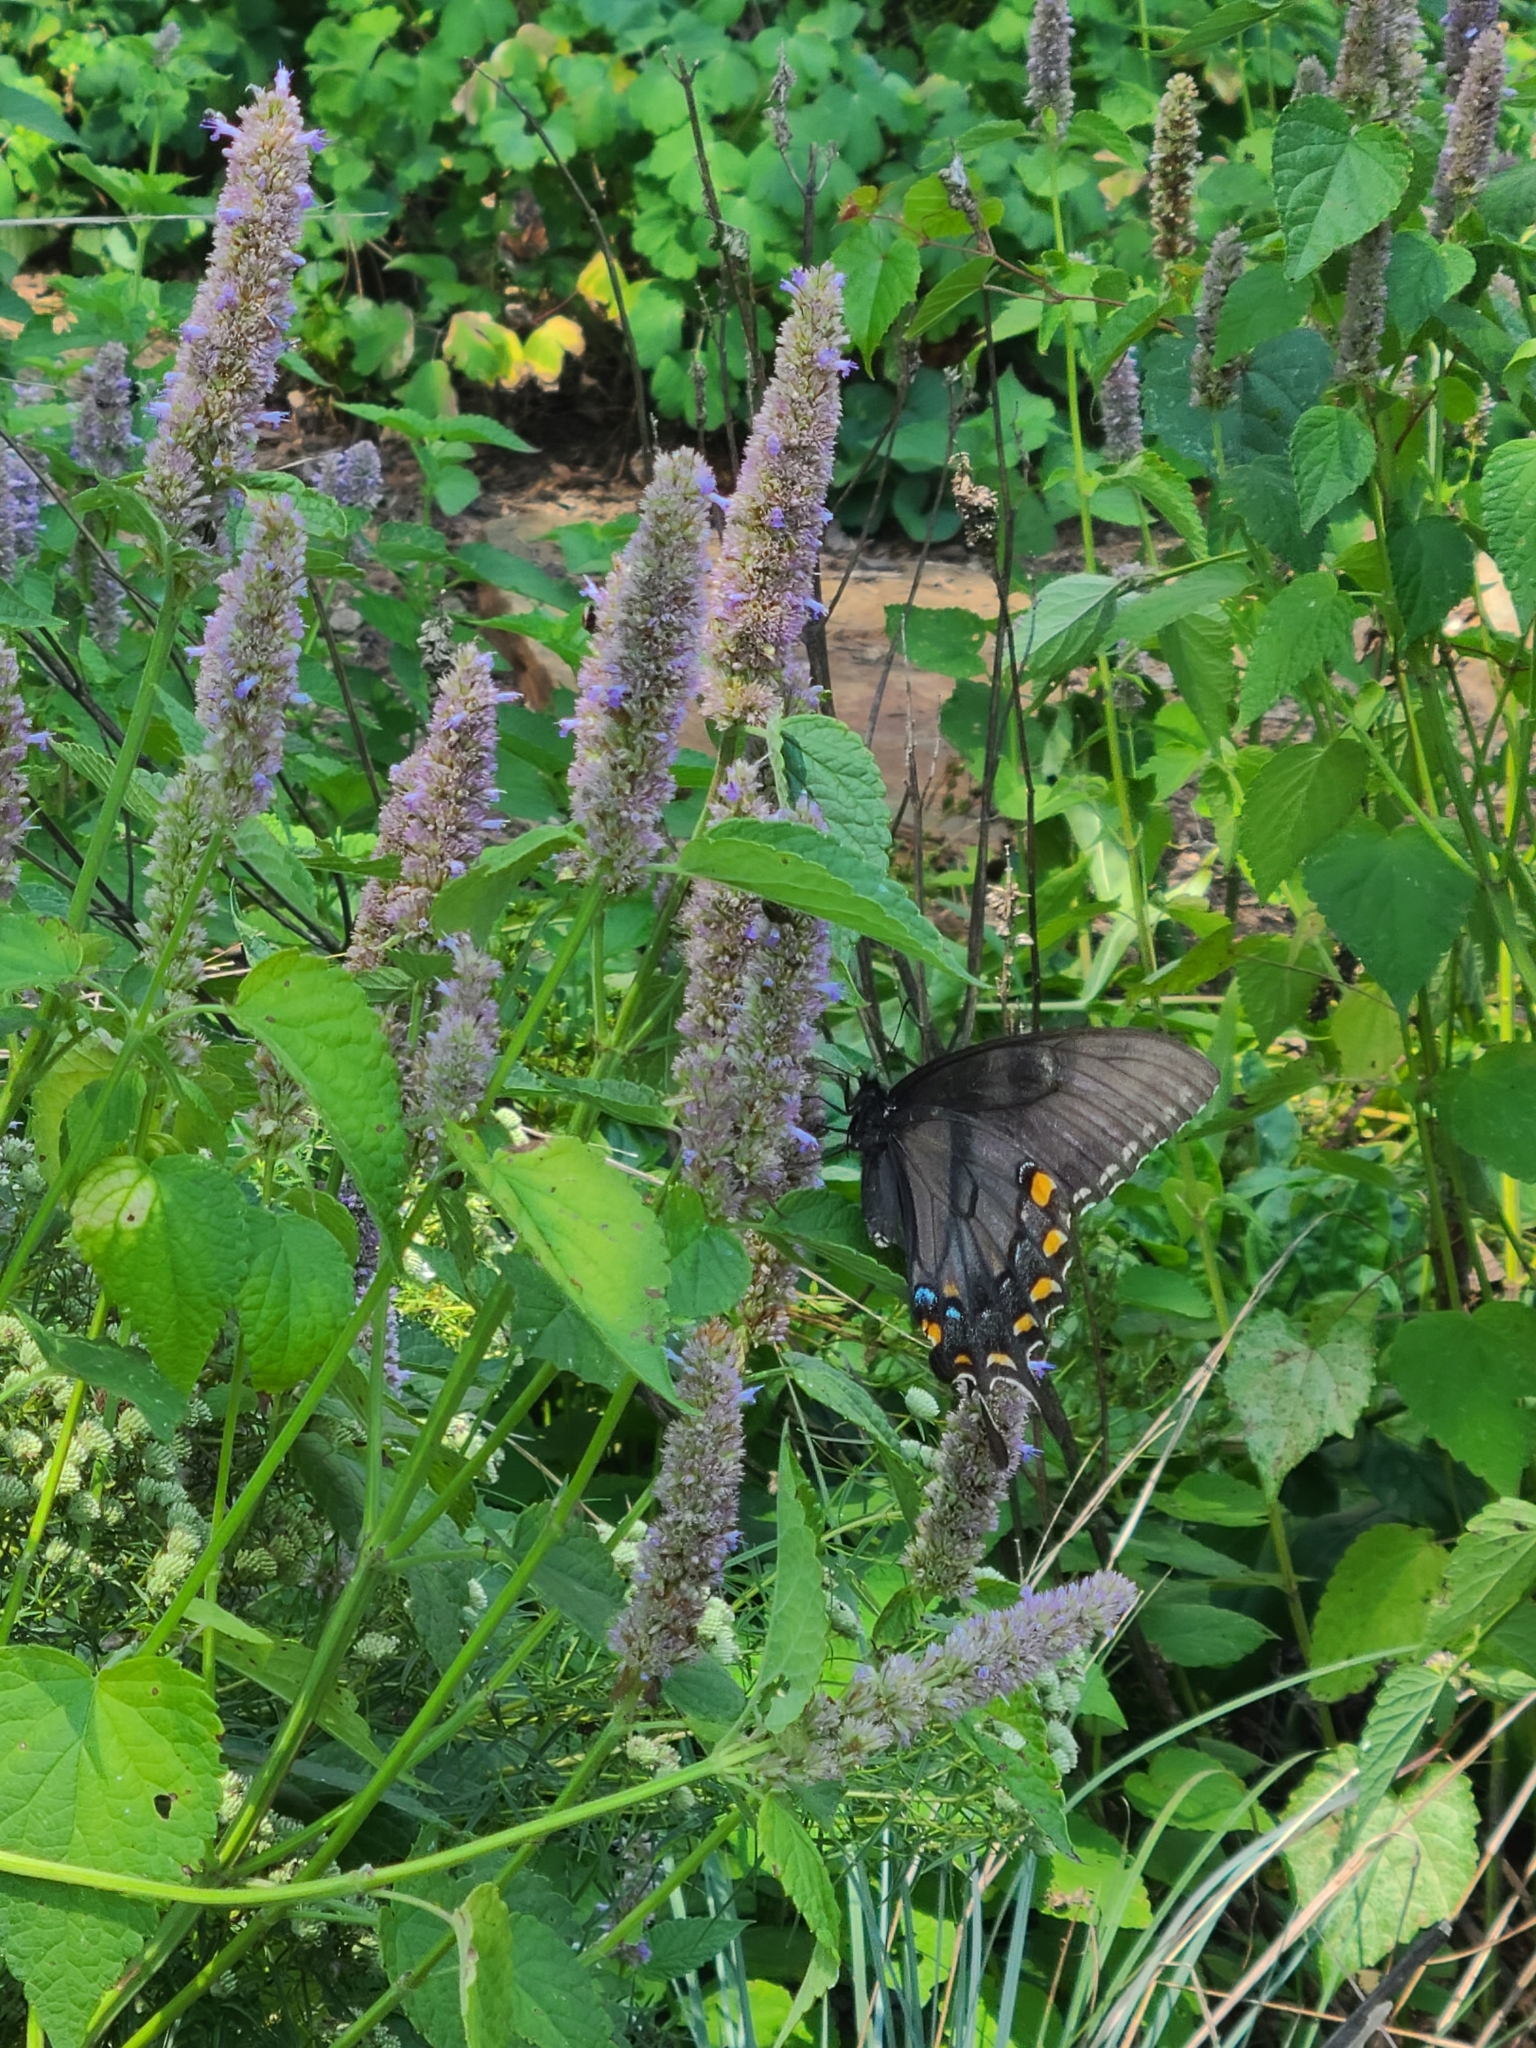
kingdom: Animalia
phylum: Arthropoda
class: Insecta
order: Lepidoptera
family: Papilionidae
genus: Papilio
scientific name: Papilio glaucus
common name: Tiger swallowtail
